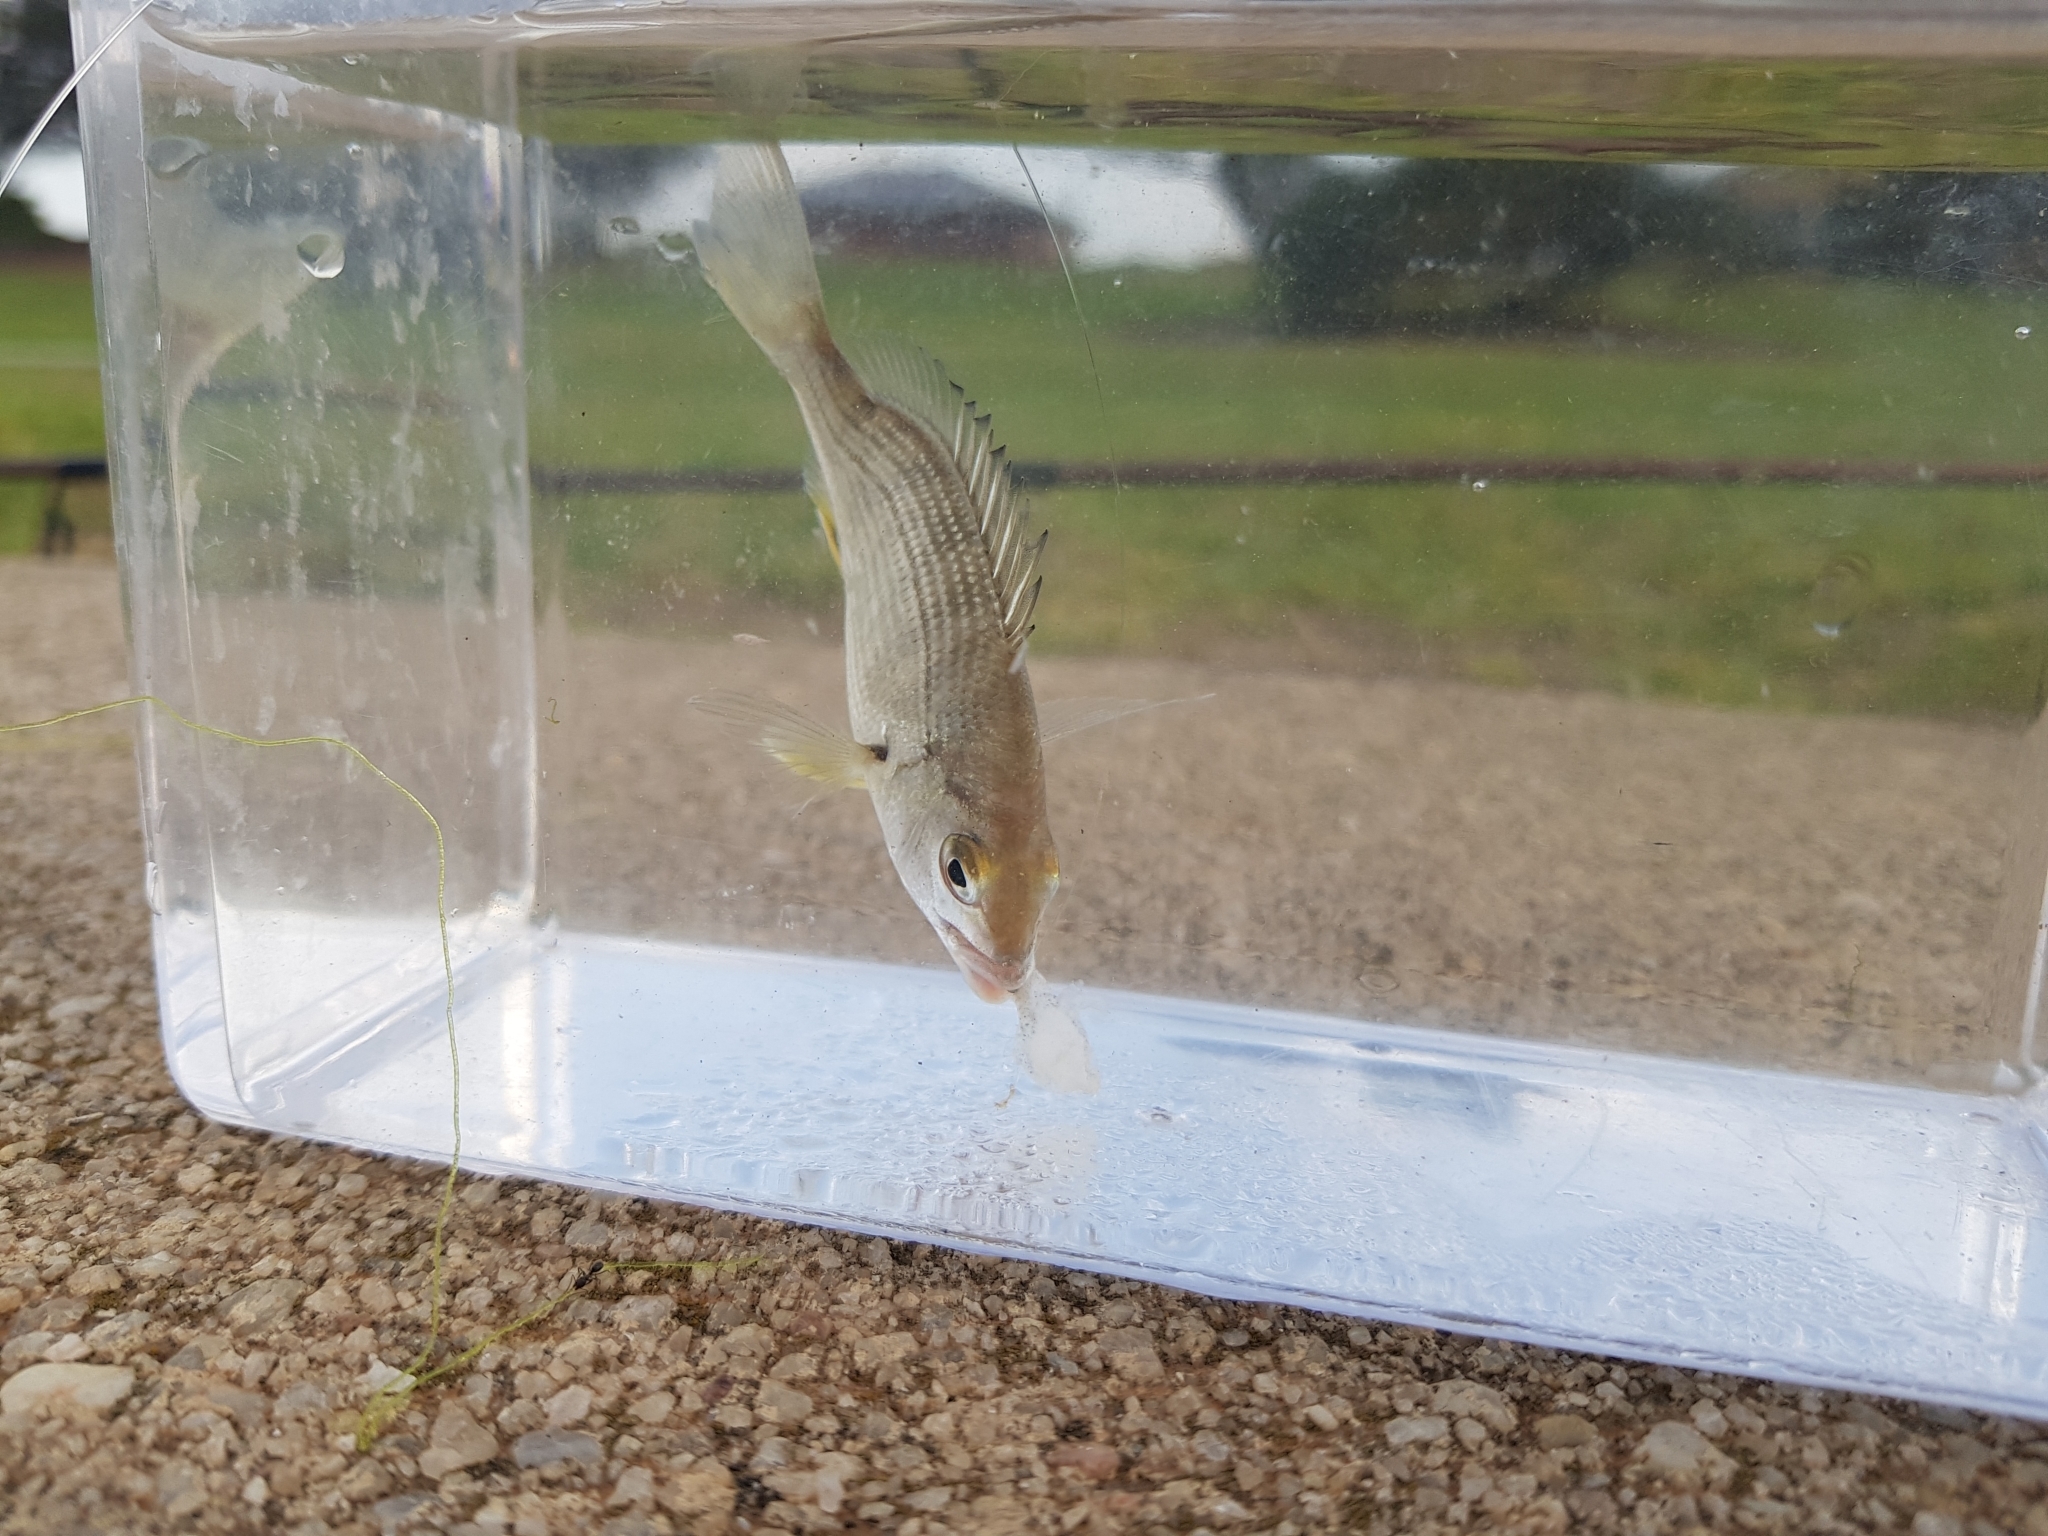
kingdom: Animalia
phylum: Chordata
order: Perciformes
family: Sparidae
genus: Acanthopagrus
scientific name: Acanthopagrus butcheri
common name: Black bream
